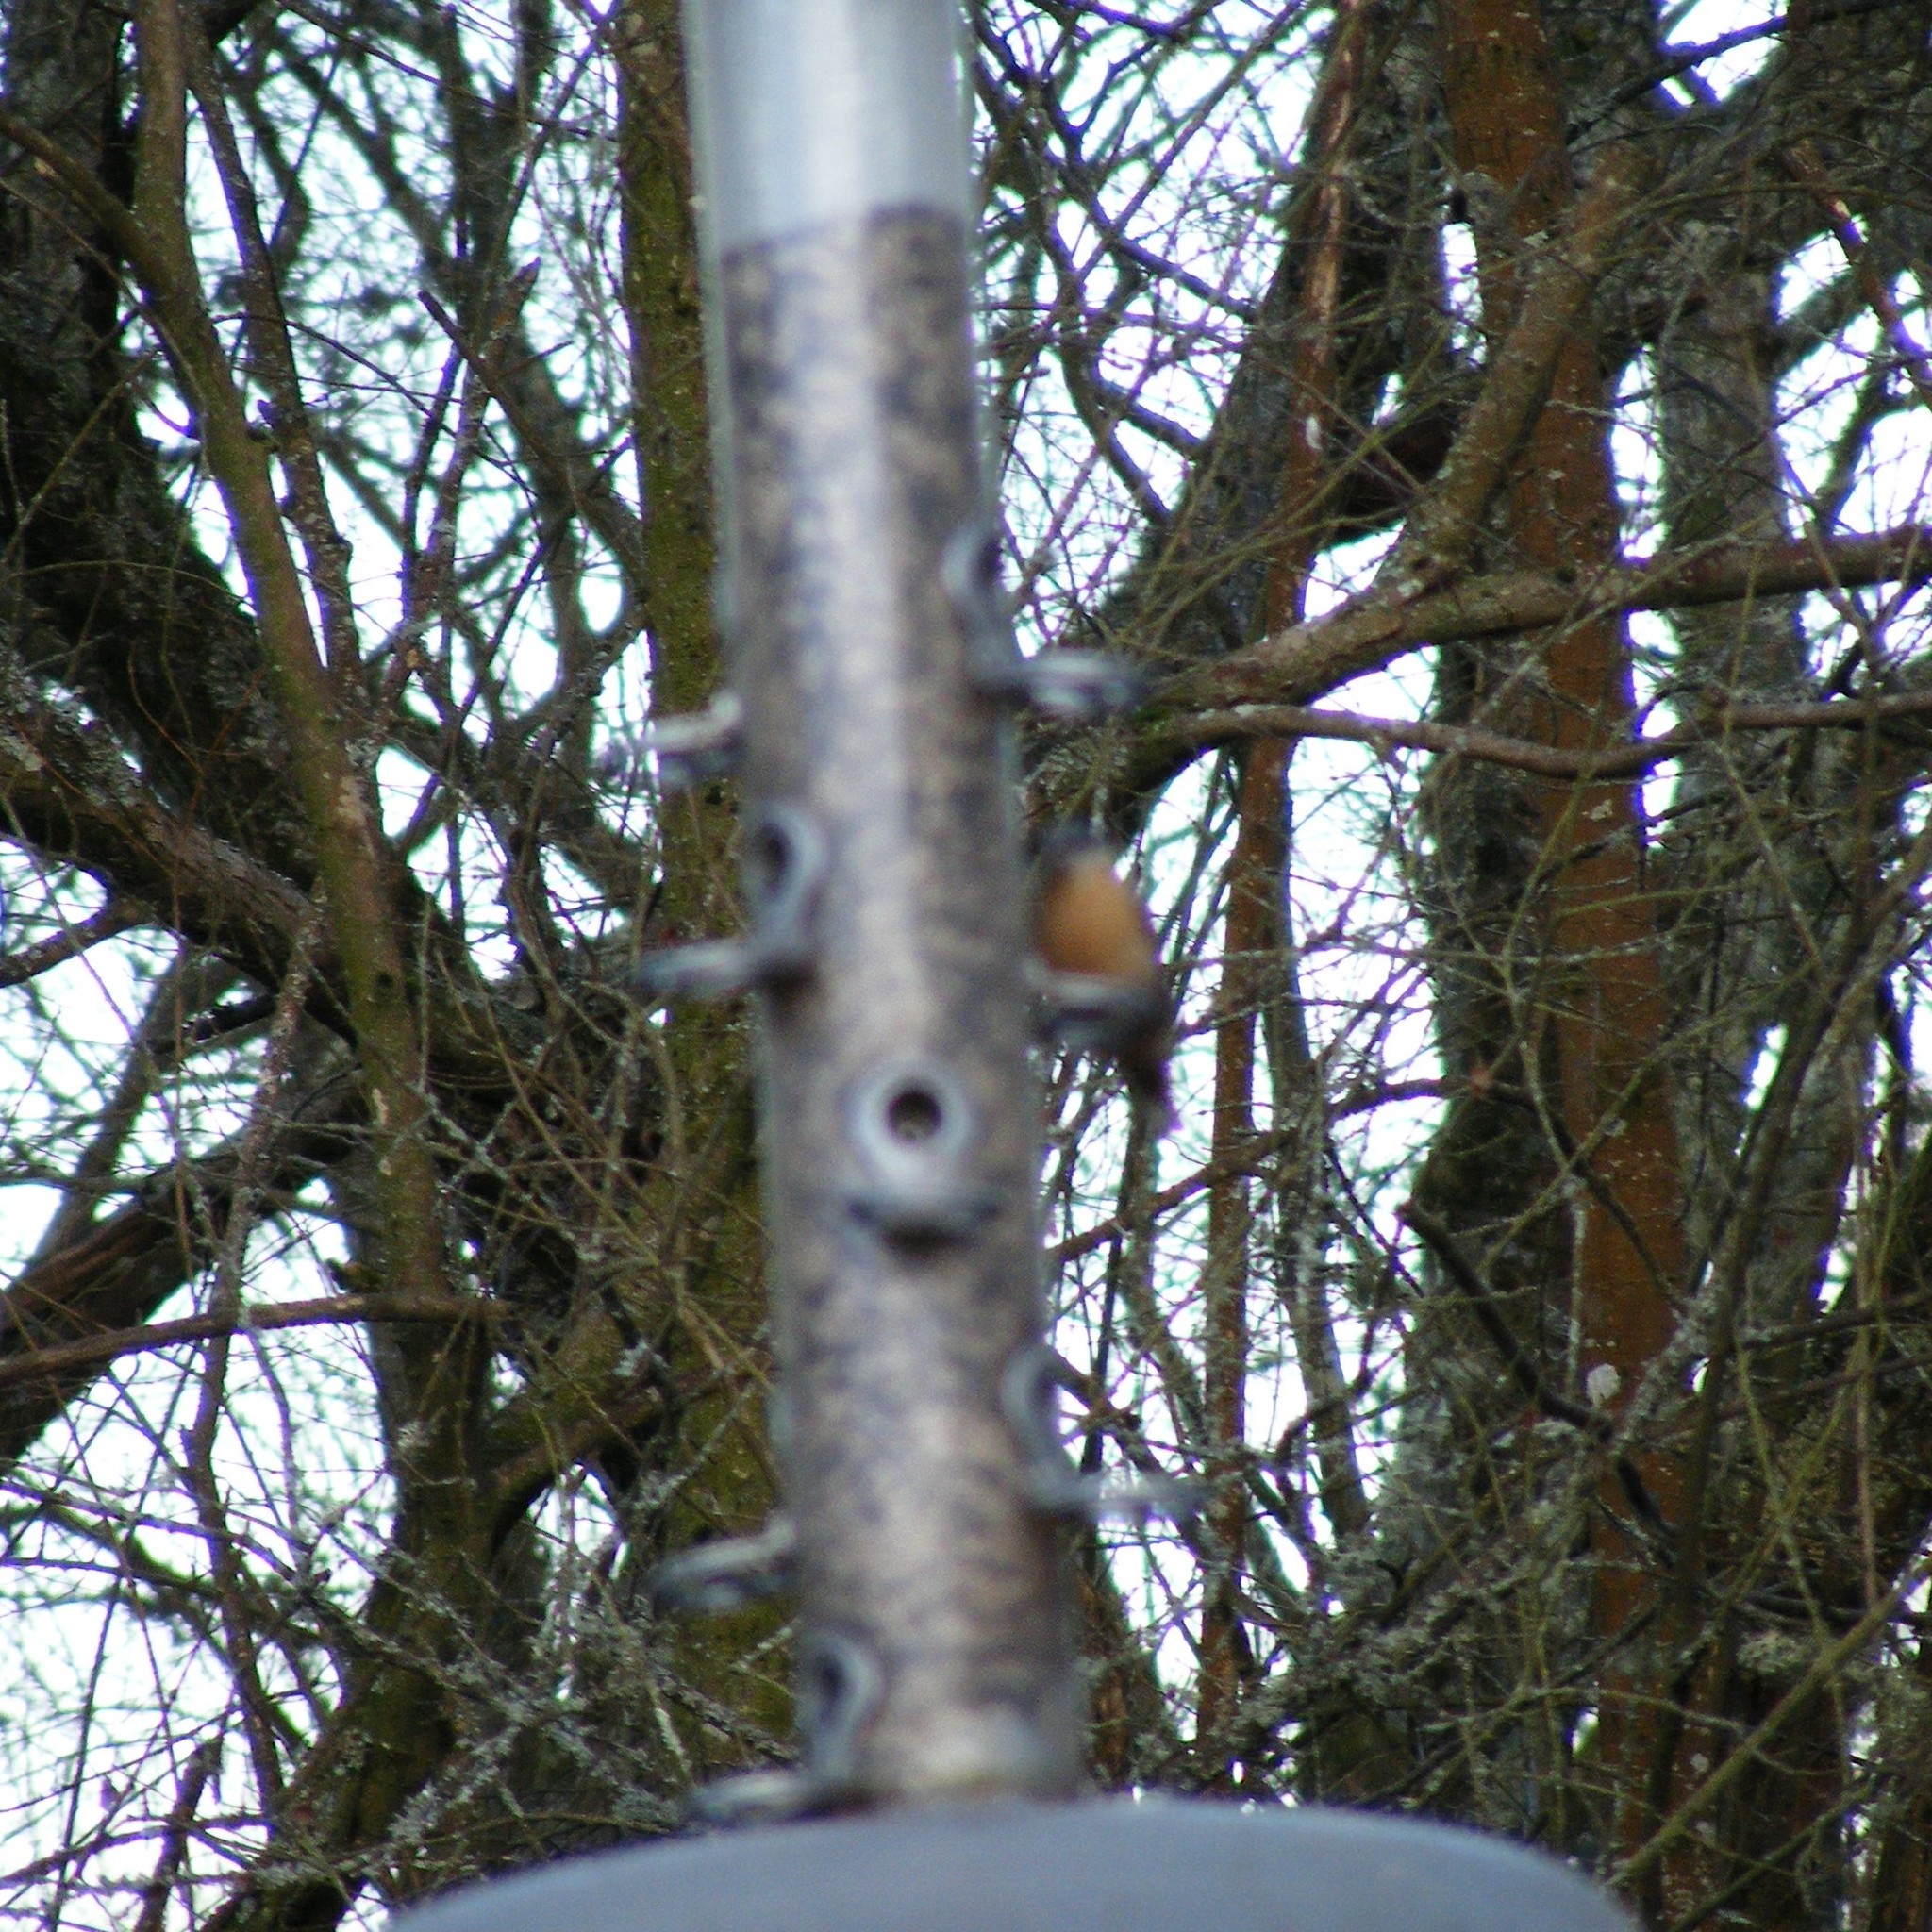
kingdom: Animalia
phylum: Chordata
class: Aves
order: Passeriformes
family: Sittidae
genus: Sitta
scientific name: Sitta europaea
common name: Eurasian nuthatch
